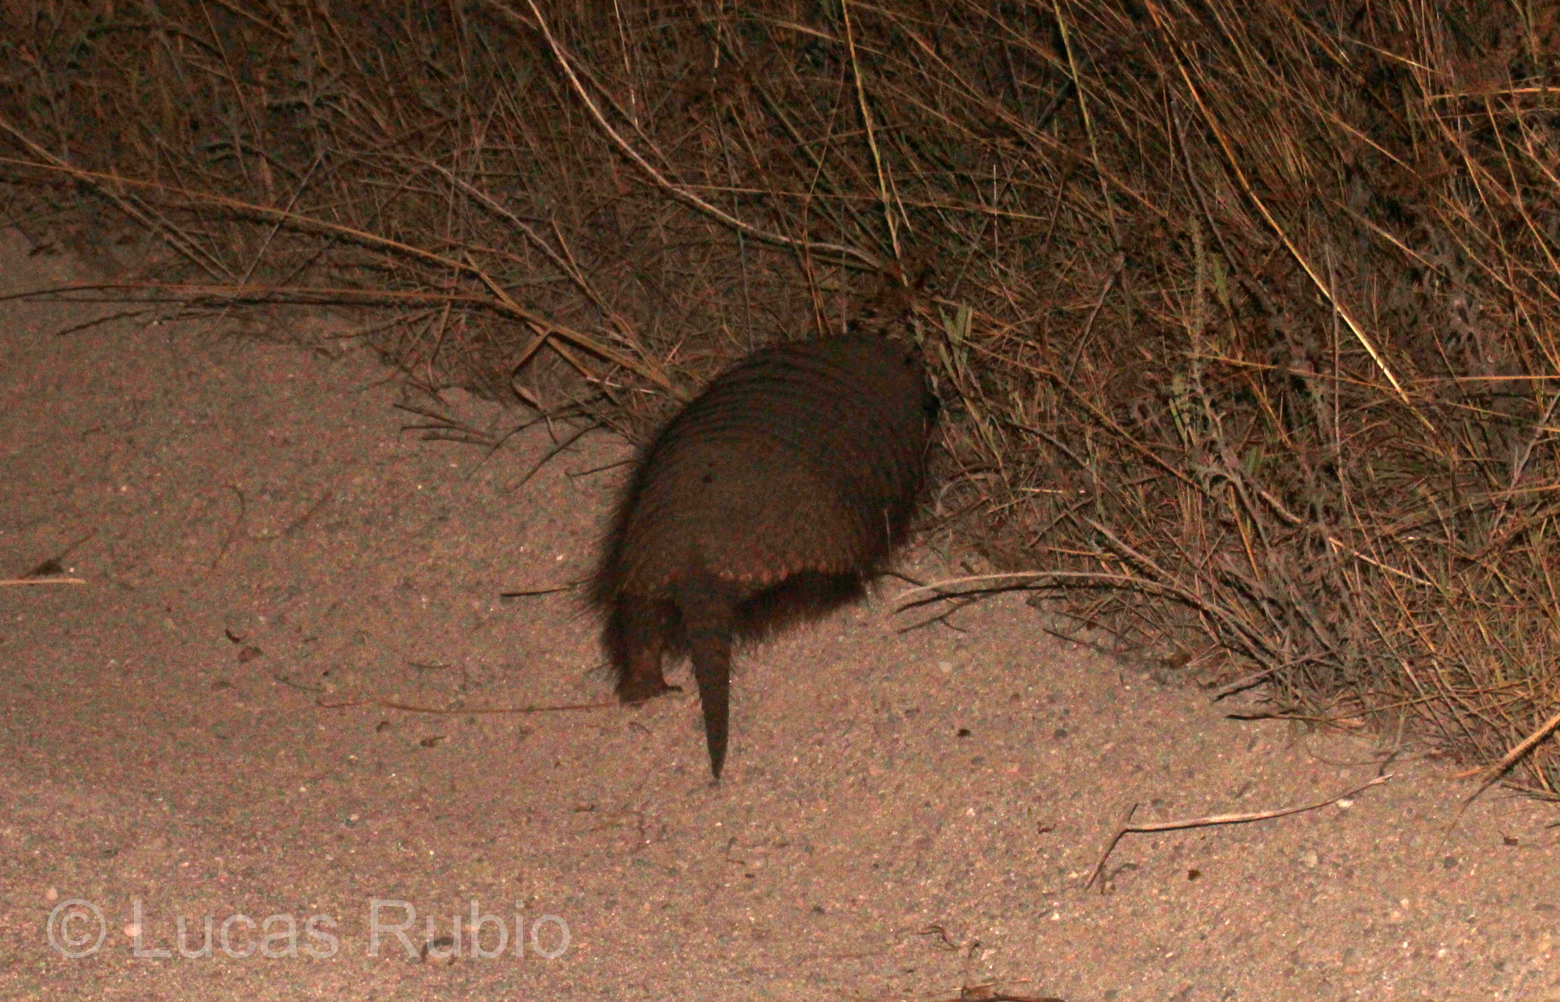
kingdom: Animalia
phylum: Chordata
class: Mammalia
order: Cingulata
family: Dasypodidae
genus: Chaetophractus
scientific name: Chaetophractus villosus
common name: Big hairy armadillo
